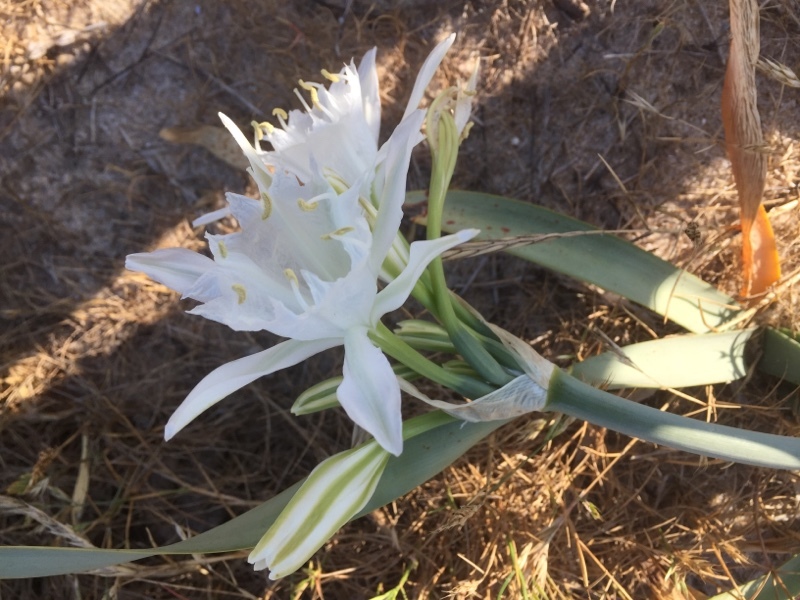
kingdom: Plantae
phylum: Tracheophyta
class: Liliopsida
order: Asparagales
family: Amaryllidaceae
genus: Pancratium
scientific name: Pancratium maritimum
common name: Sea-daffodil
